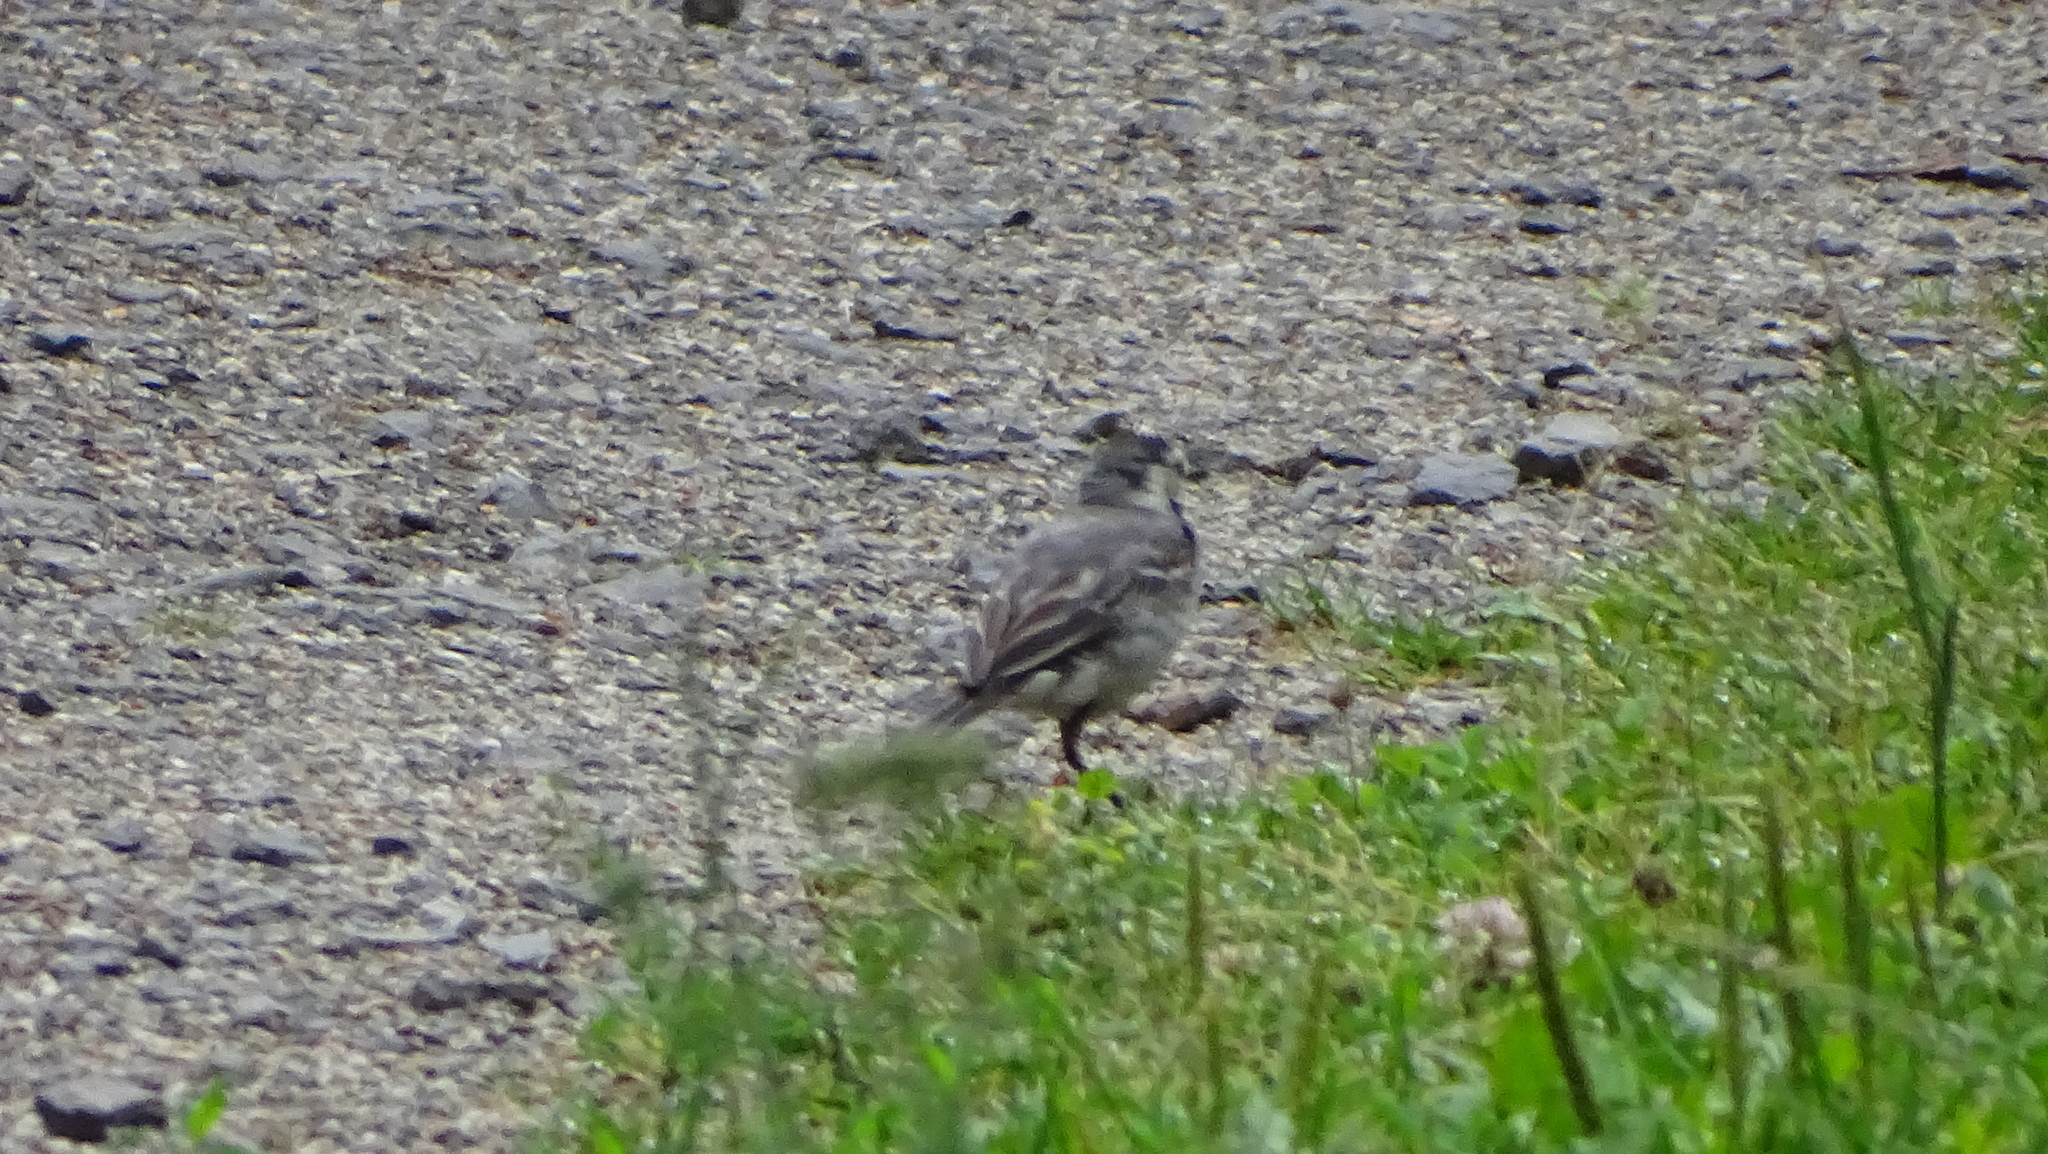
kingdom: Animalia
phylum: Chordata
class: Aves
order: Passeriformes
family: Motacillidae
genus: Motacilla
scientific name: Motacilla alba
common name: White wagtail
